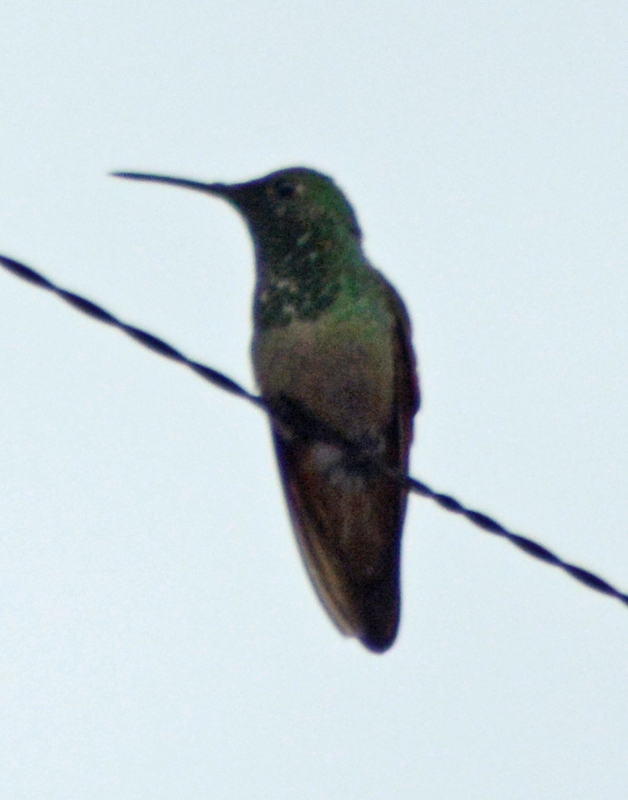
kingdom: Animalia
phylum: Chordata
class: Aves
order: Apodiformes
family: Trochilidae
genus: Saucerottia
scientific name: Saucerottia beryllina
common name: Berylline hummingbird
